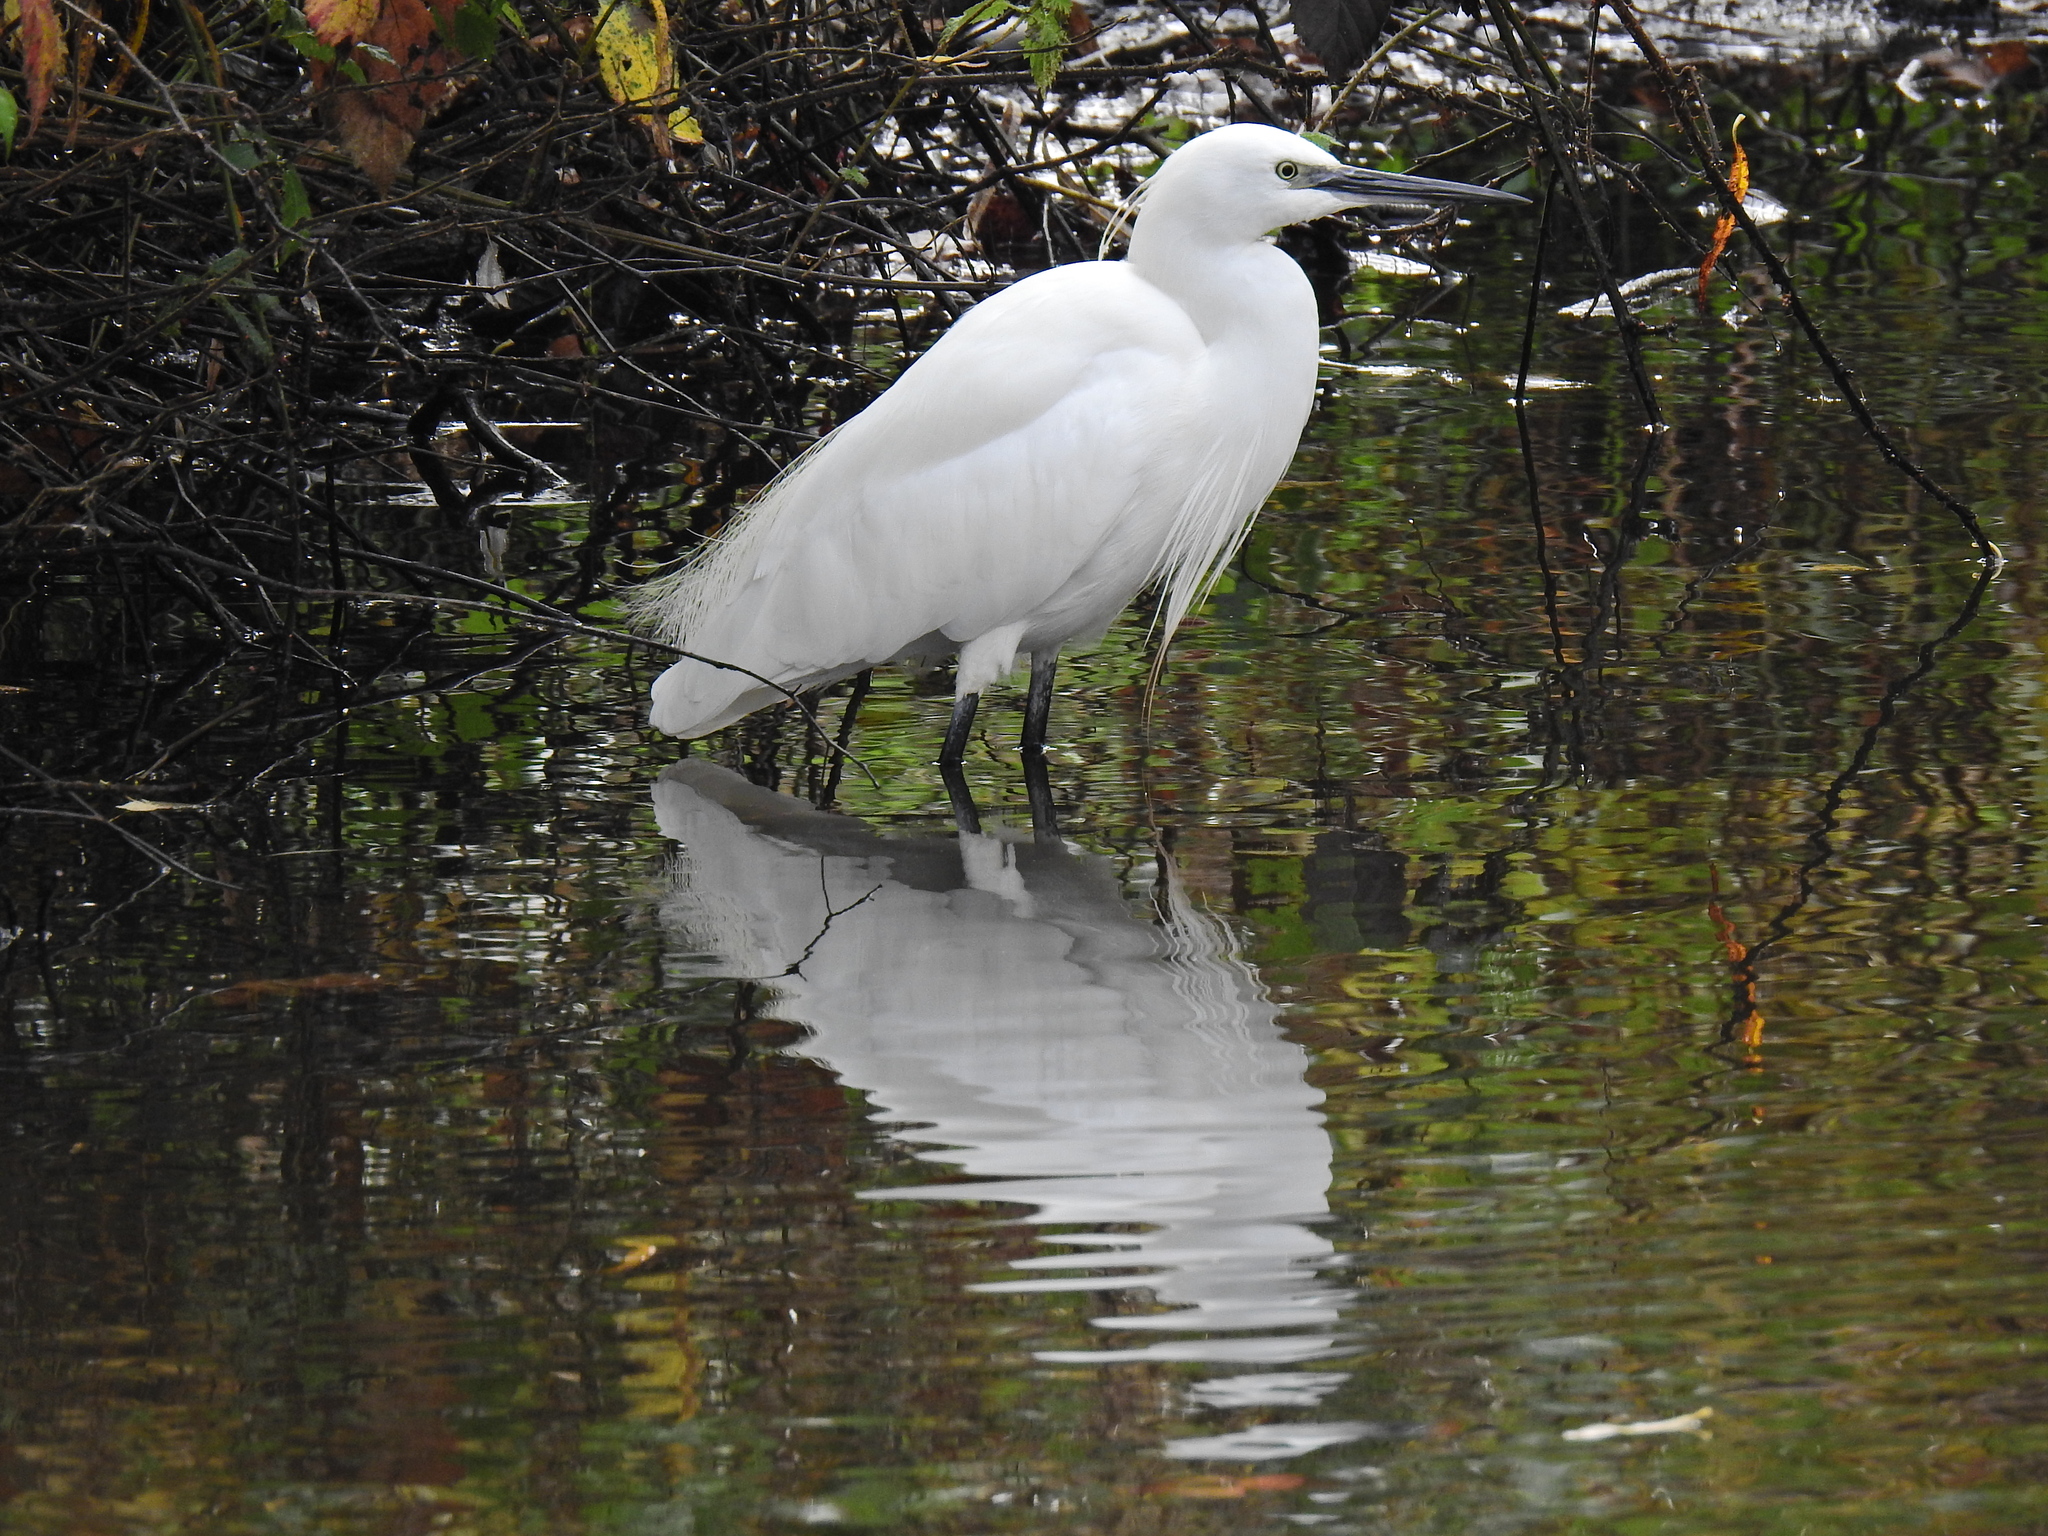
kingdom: Animalia
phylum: Chordata
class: Aves
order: Pelecaniformes
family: Ardeidae
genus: Egretta
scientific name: Egretta garzetta
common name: Little egret
